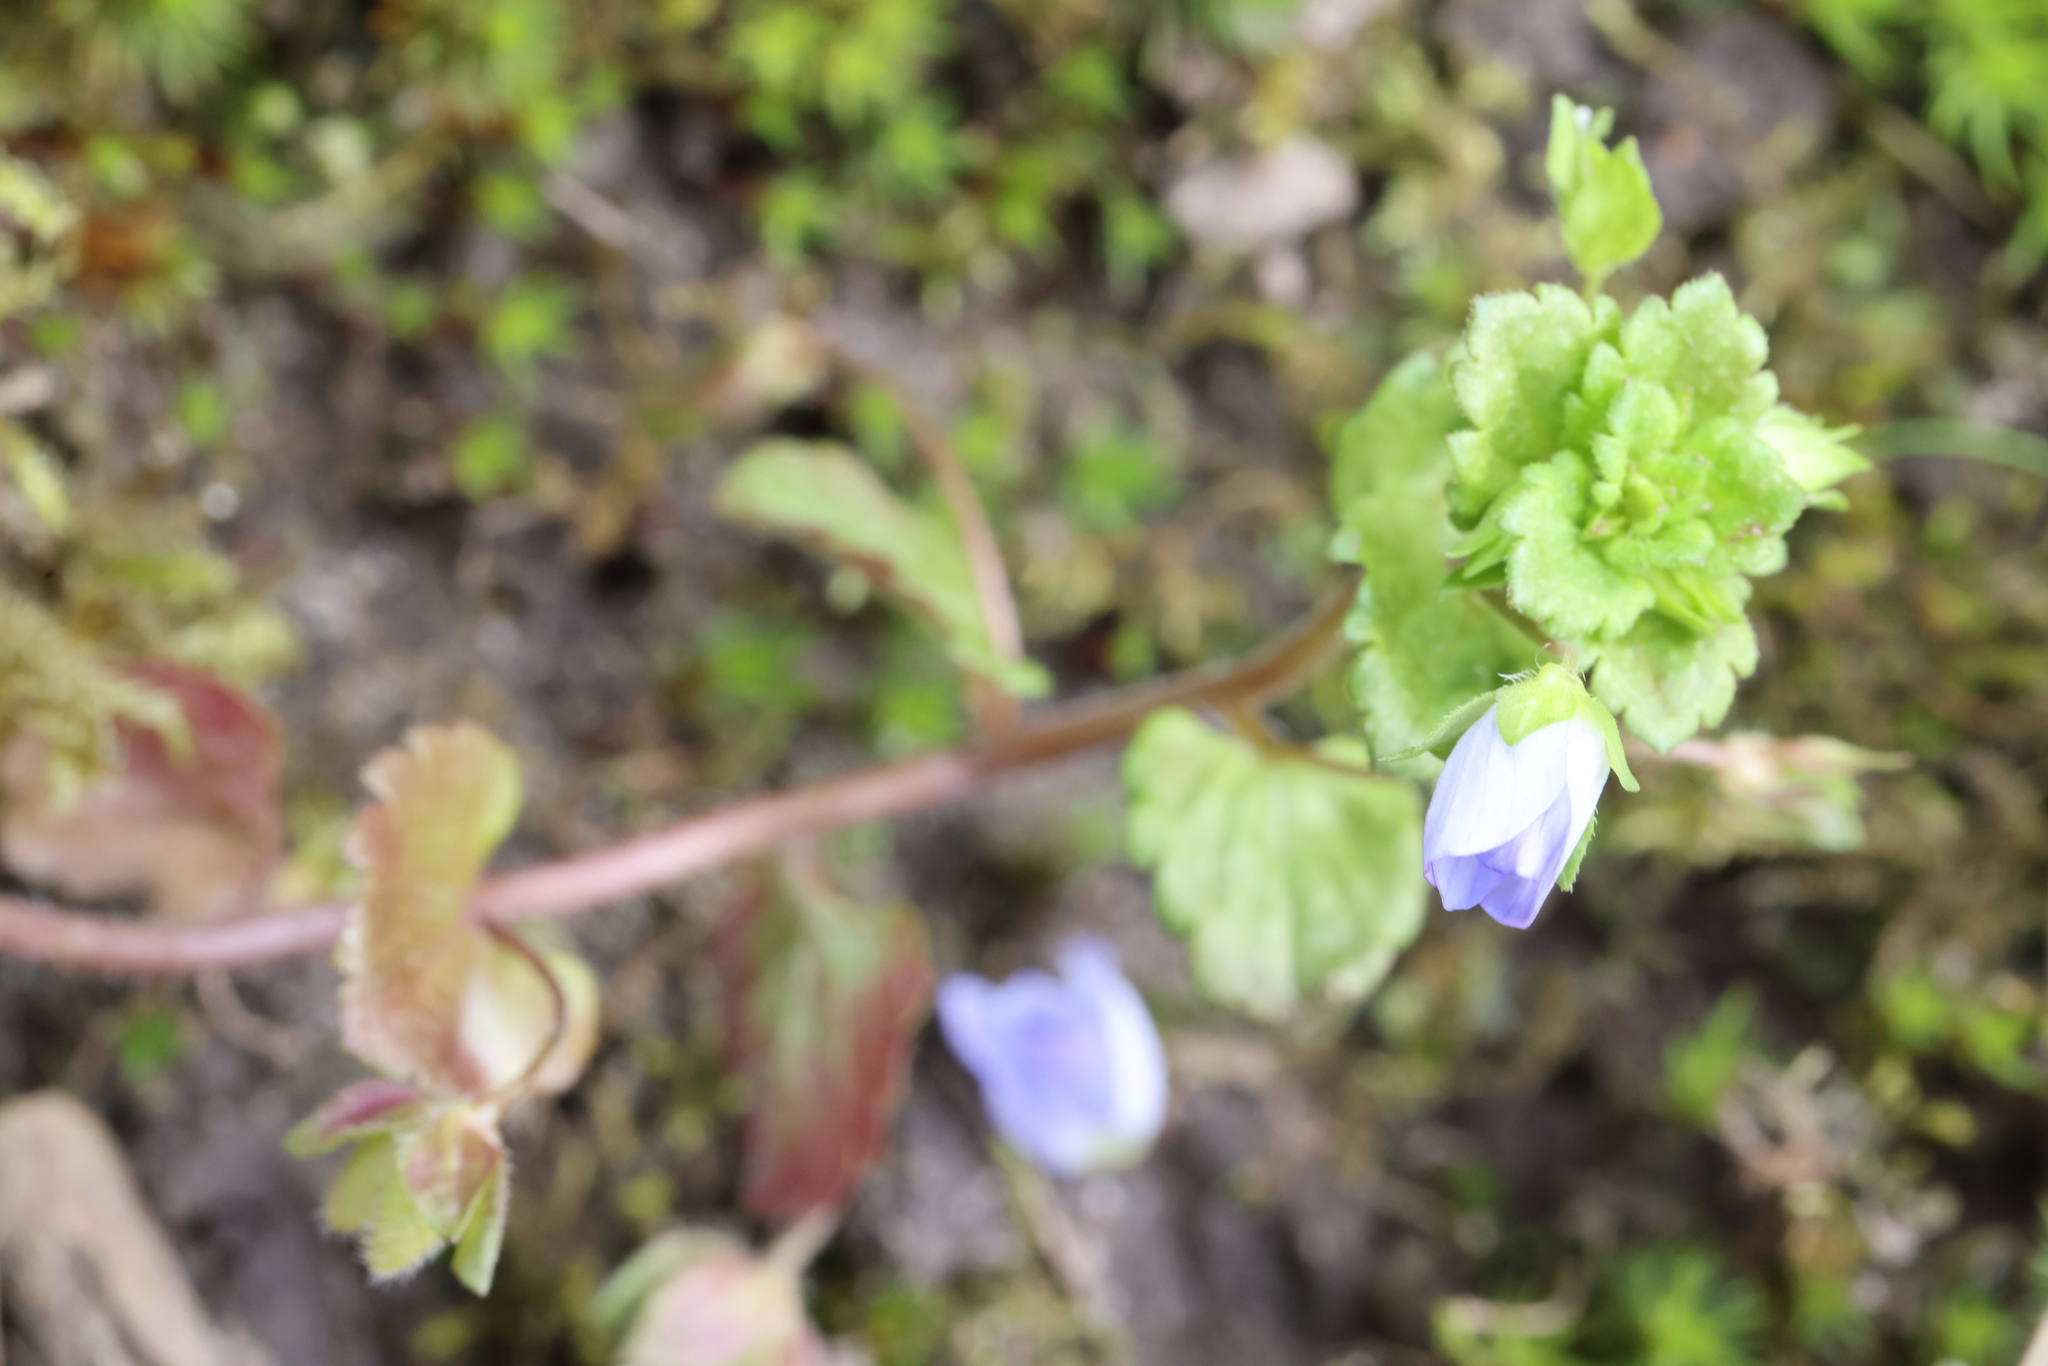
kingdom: Plantae
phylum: Tracheophyta
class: Magnoliopsida
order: Lamiales
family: Plantaginaceae
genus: Veronica
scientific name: Veronica persica
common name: Common field-speedwell
